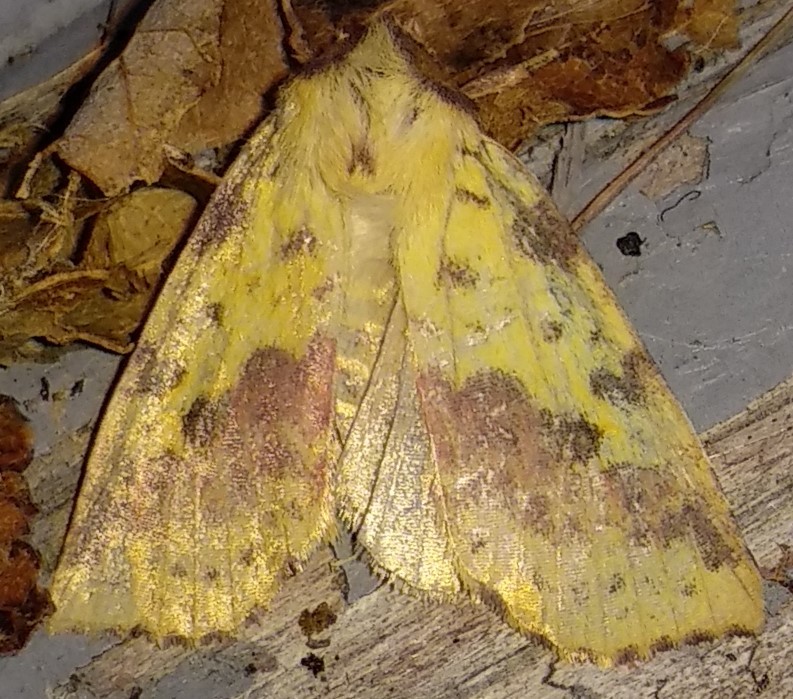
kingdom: Animalia
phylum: Arthropoda
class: Insecta
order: Lepidoptera
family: Noctuidae
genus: Xanthia
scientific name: Xanthia tatago
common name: Pink-banded sallow
